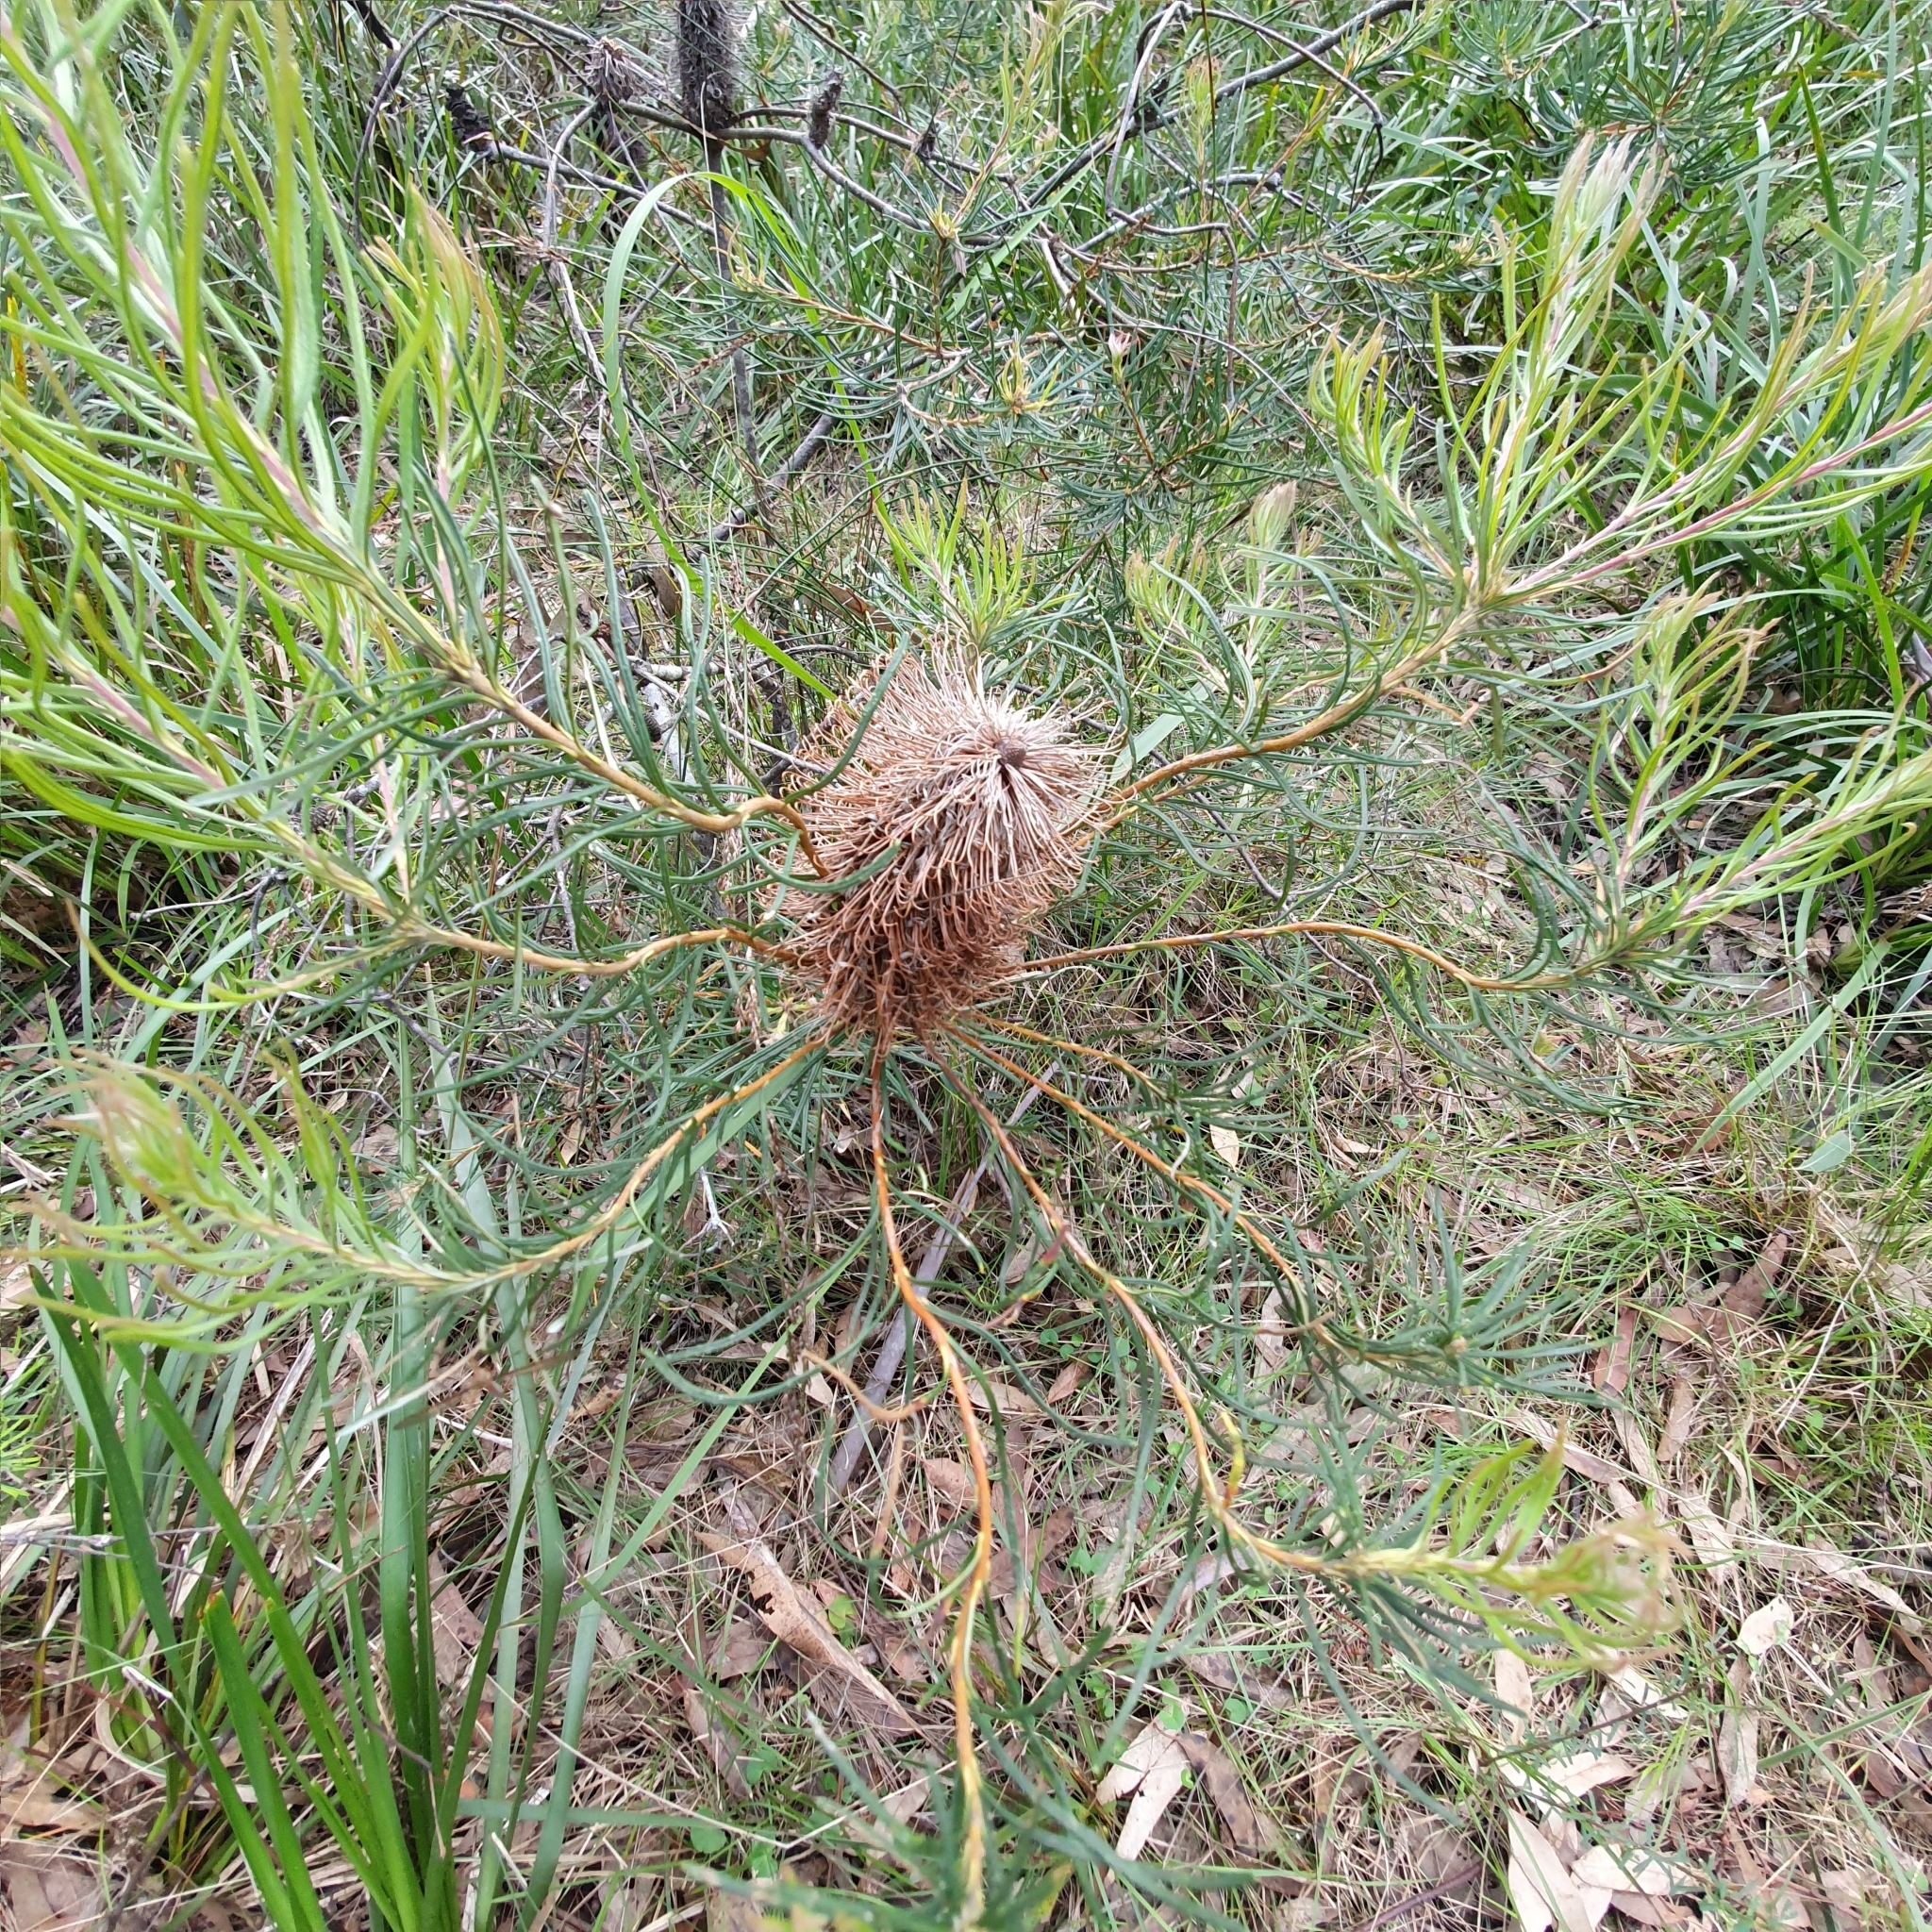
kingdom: Plantae
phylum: Tracheophyta
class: Magnoliopsida
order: Proteales
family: Proteaceae
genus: Banksia
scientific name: Banksia spinulosa
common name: Hairpin banksia
